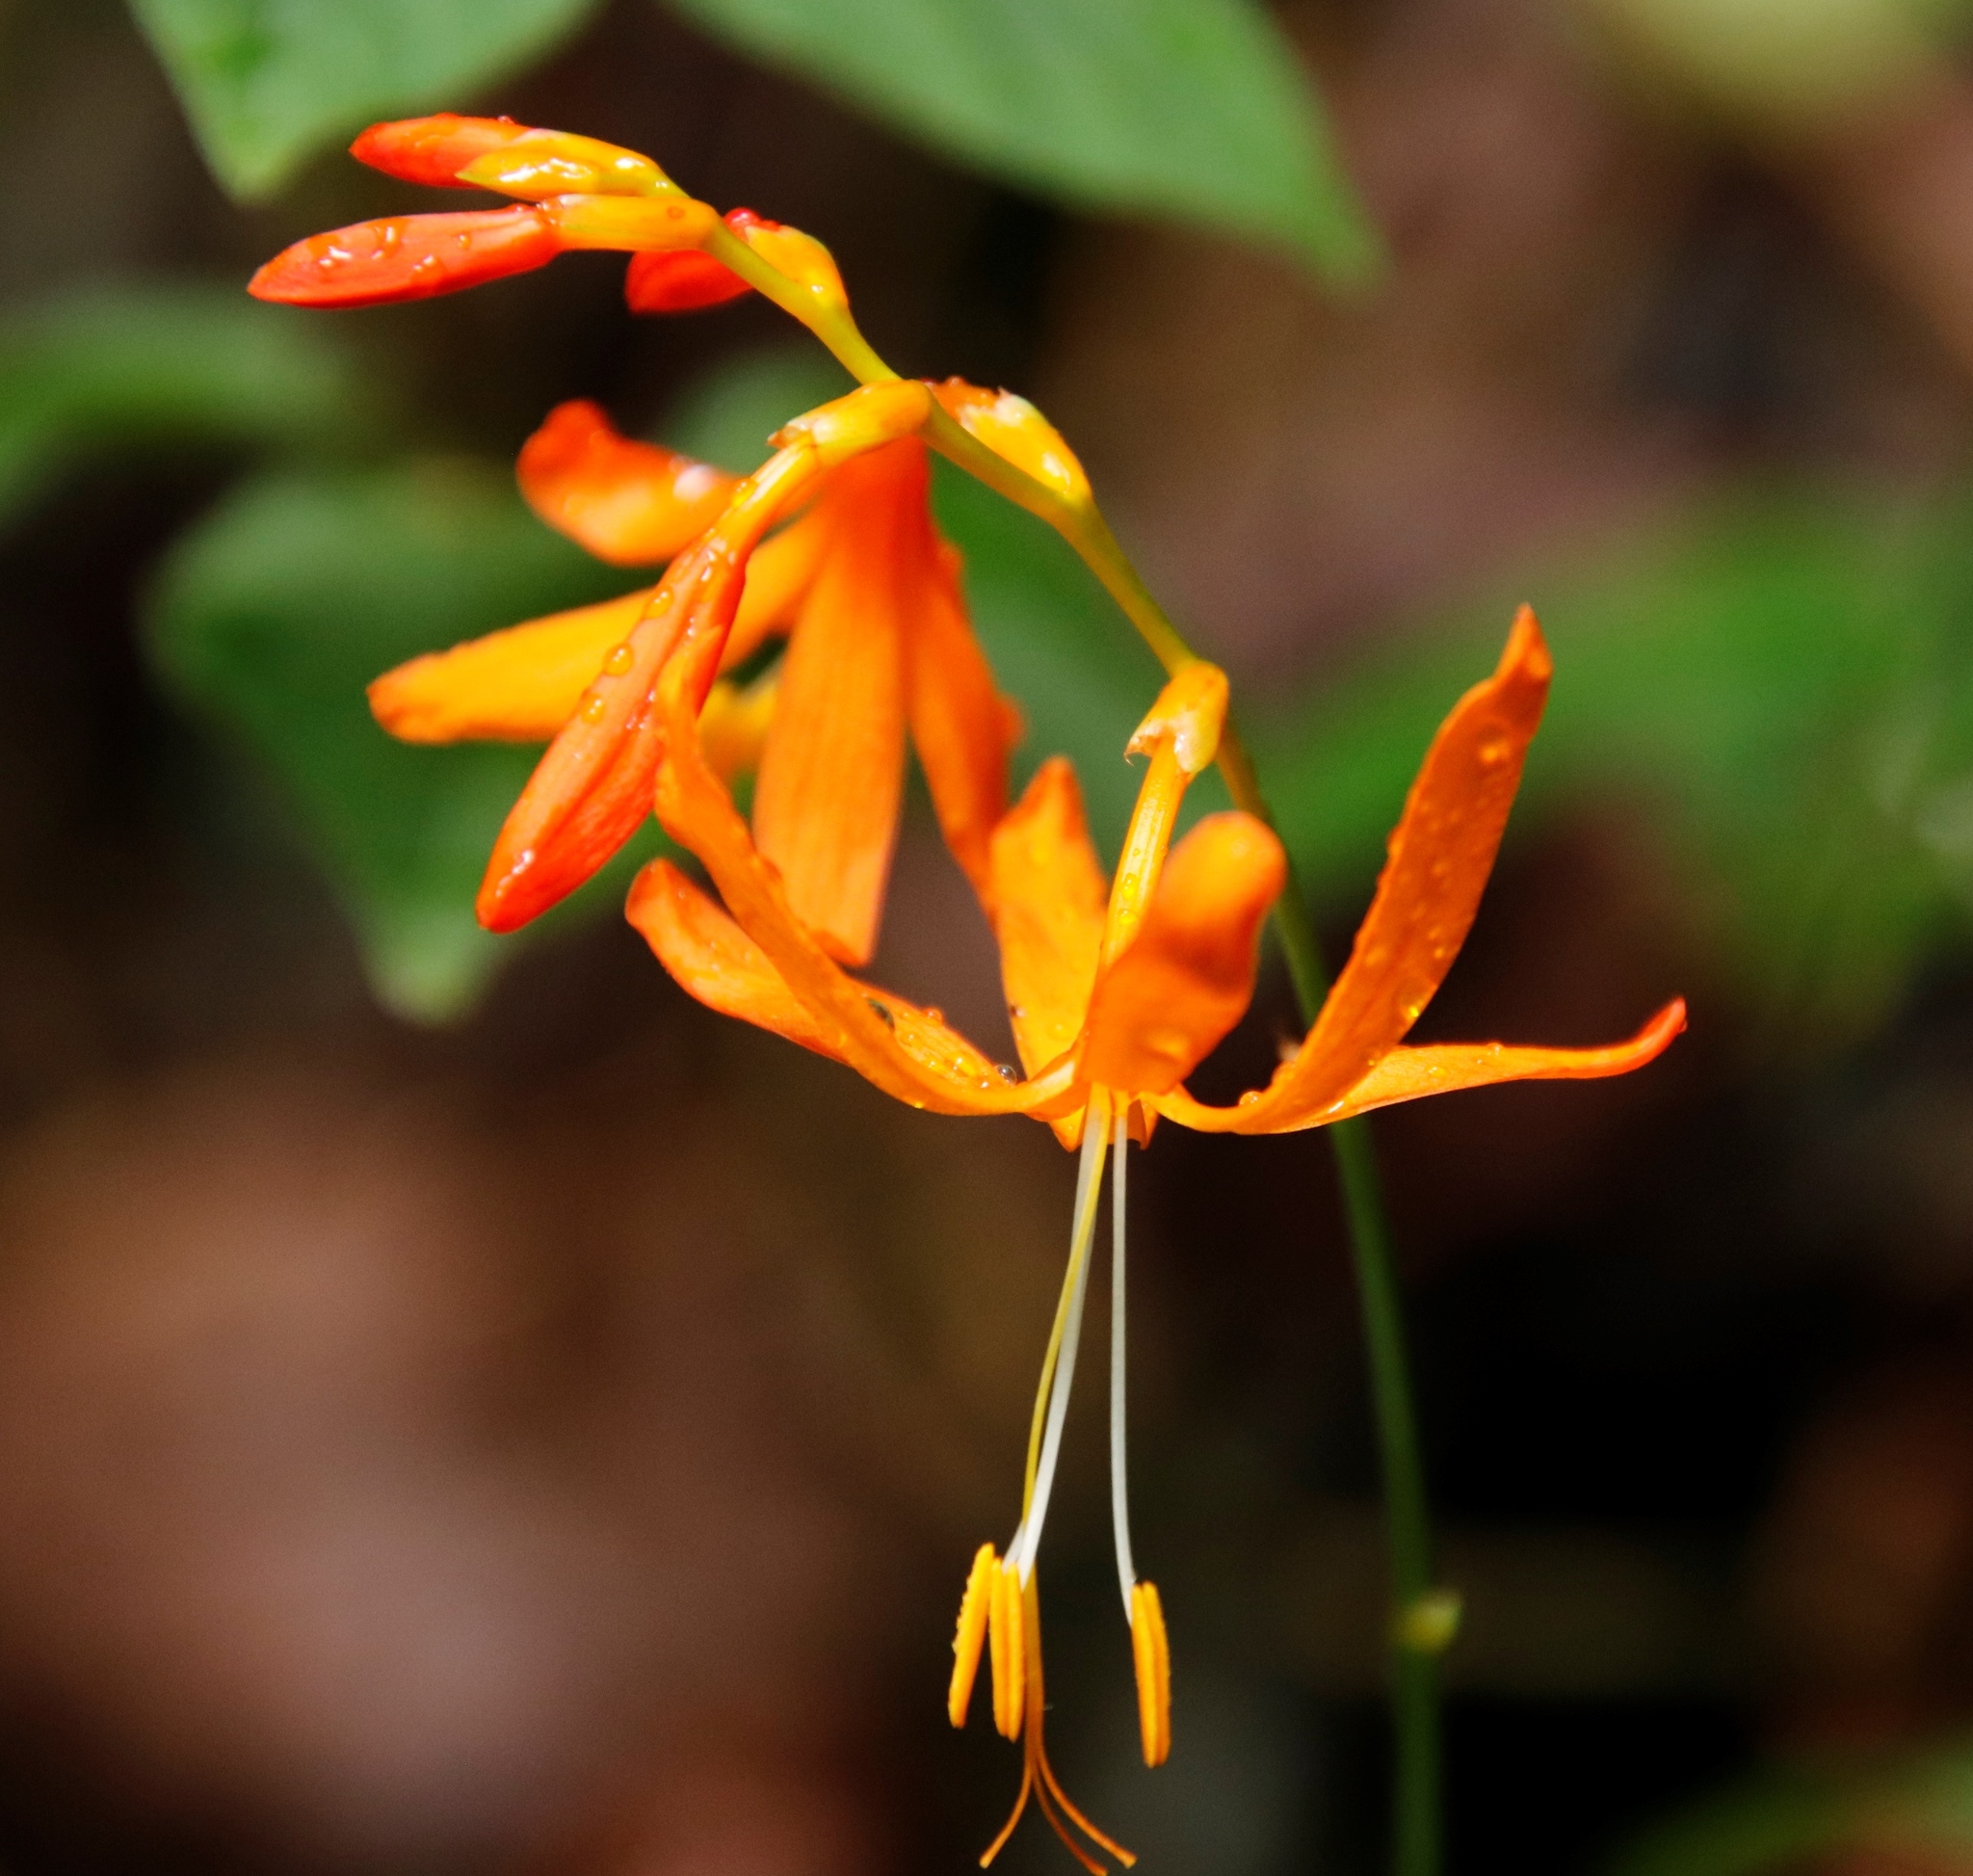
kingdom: Plantae
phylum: Tracheophyta
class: Liliopsida
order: Asparagales
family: Iridaceae
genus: Crocosmia
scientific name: Crocosmia aurea
